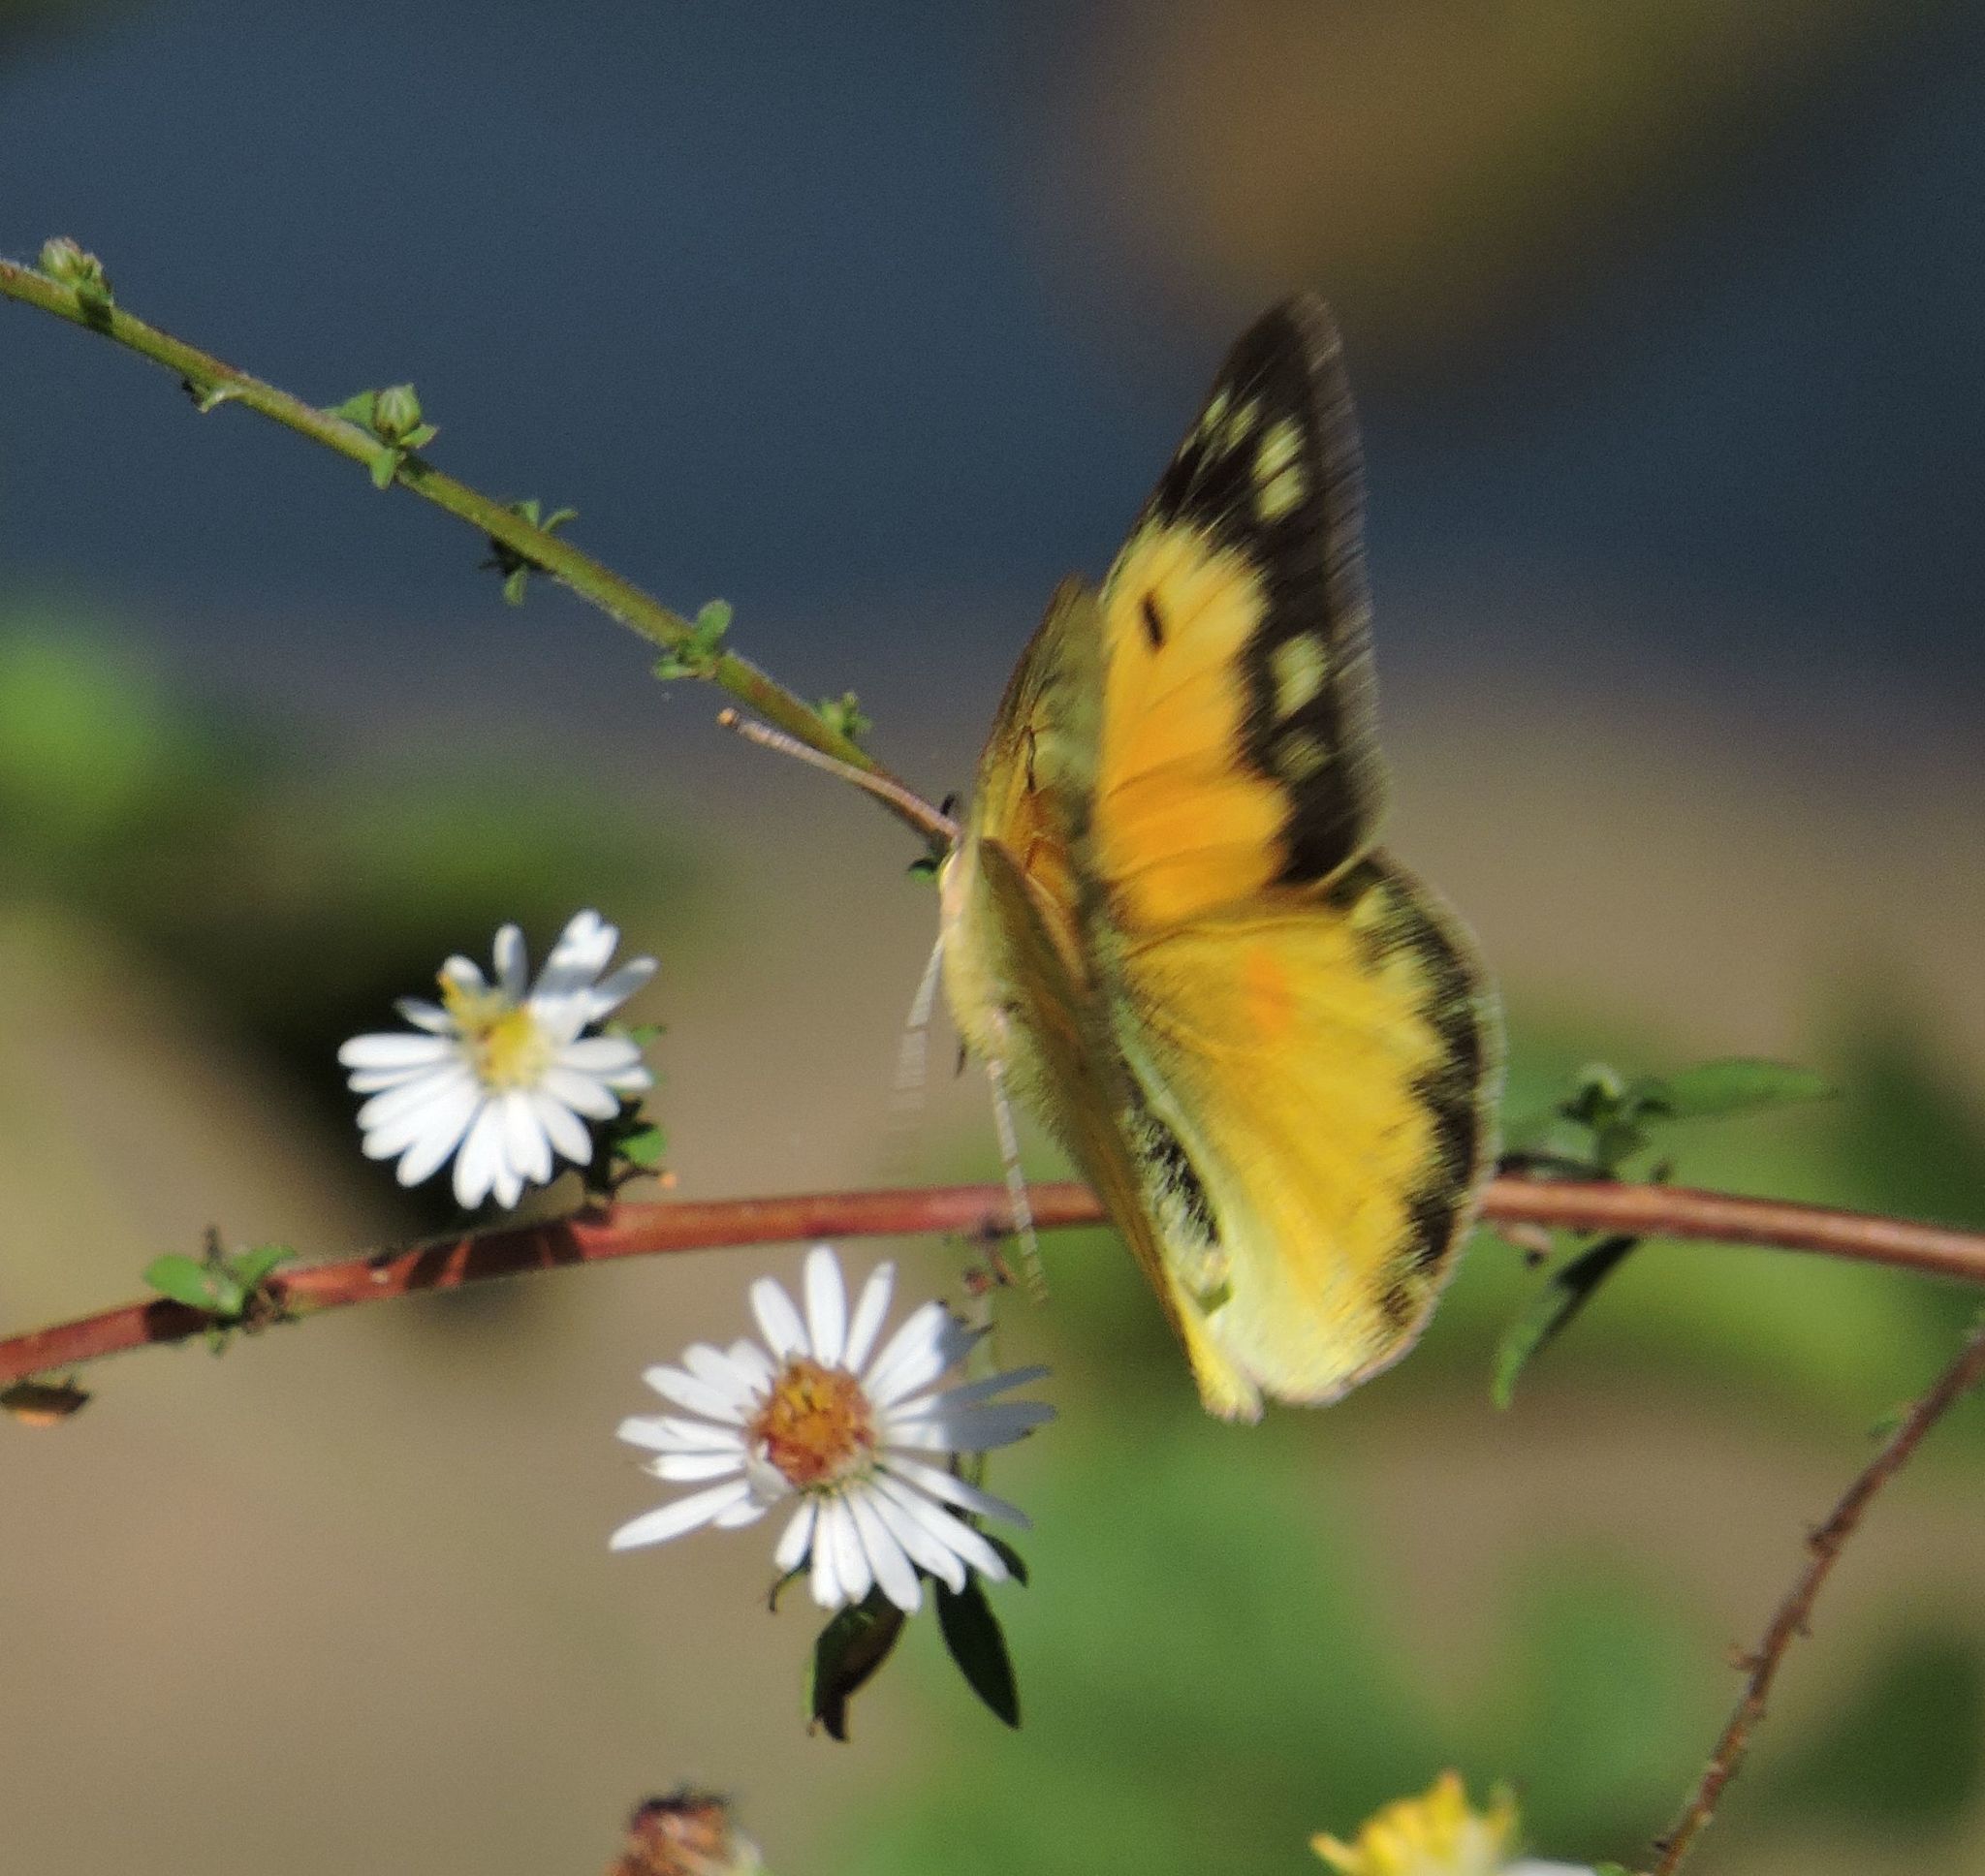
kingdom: Animalia
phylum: Arthropoda
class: Insecta
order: Lepidoptera
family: Pieridae
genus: Colias
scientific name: Colias eurytheme
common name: Alfalfa butterfly
